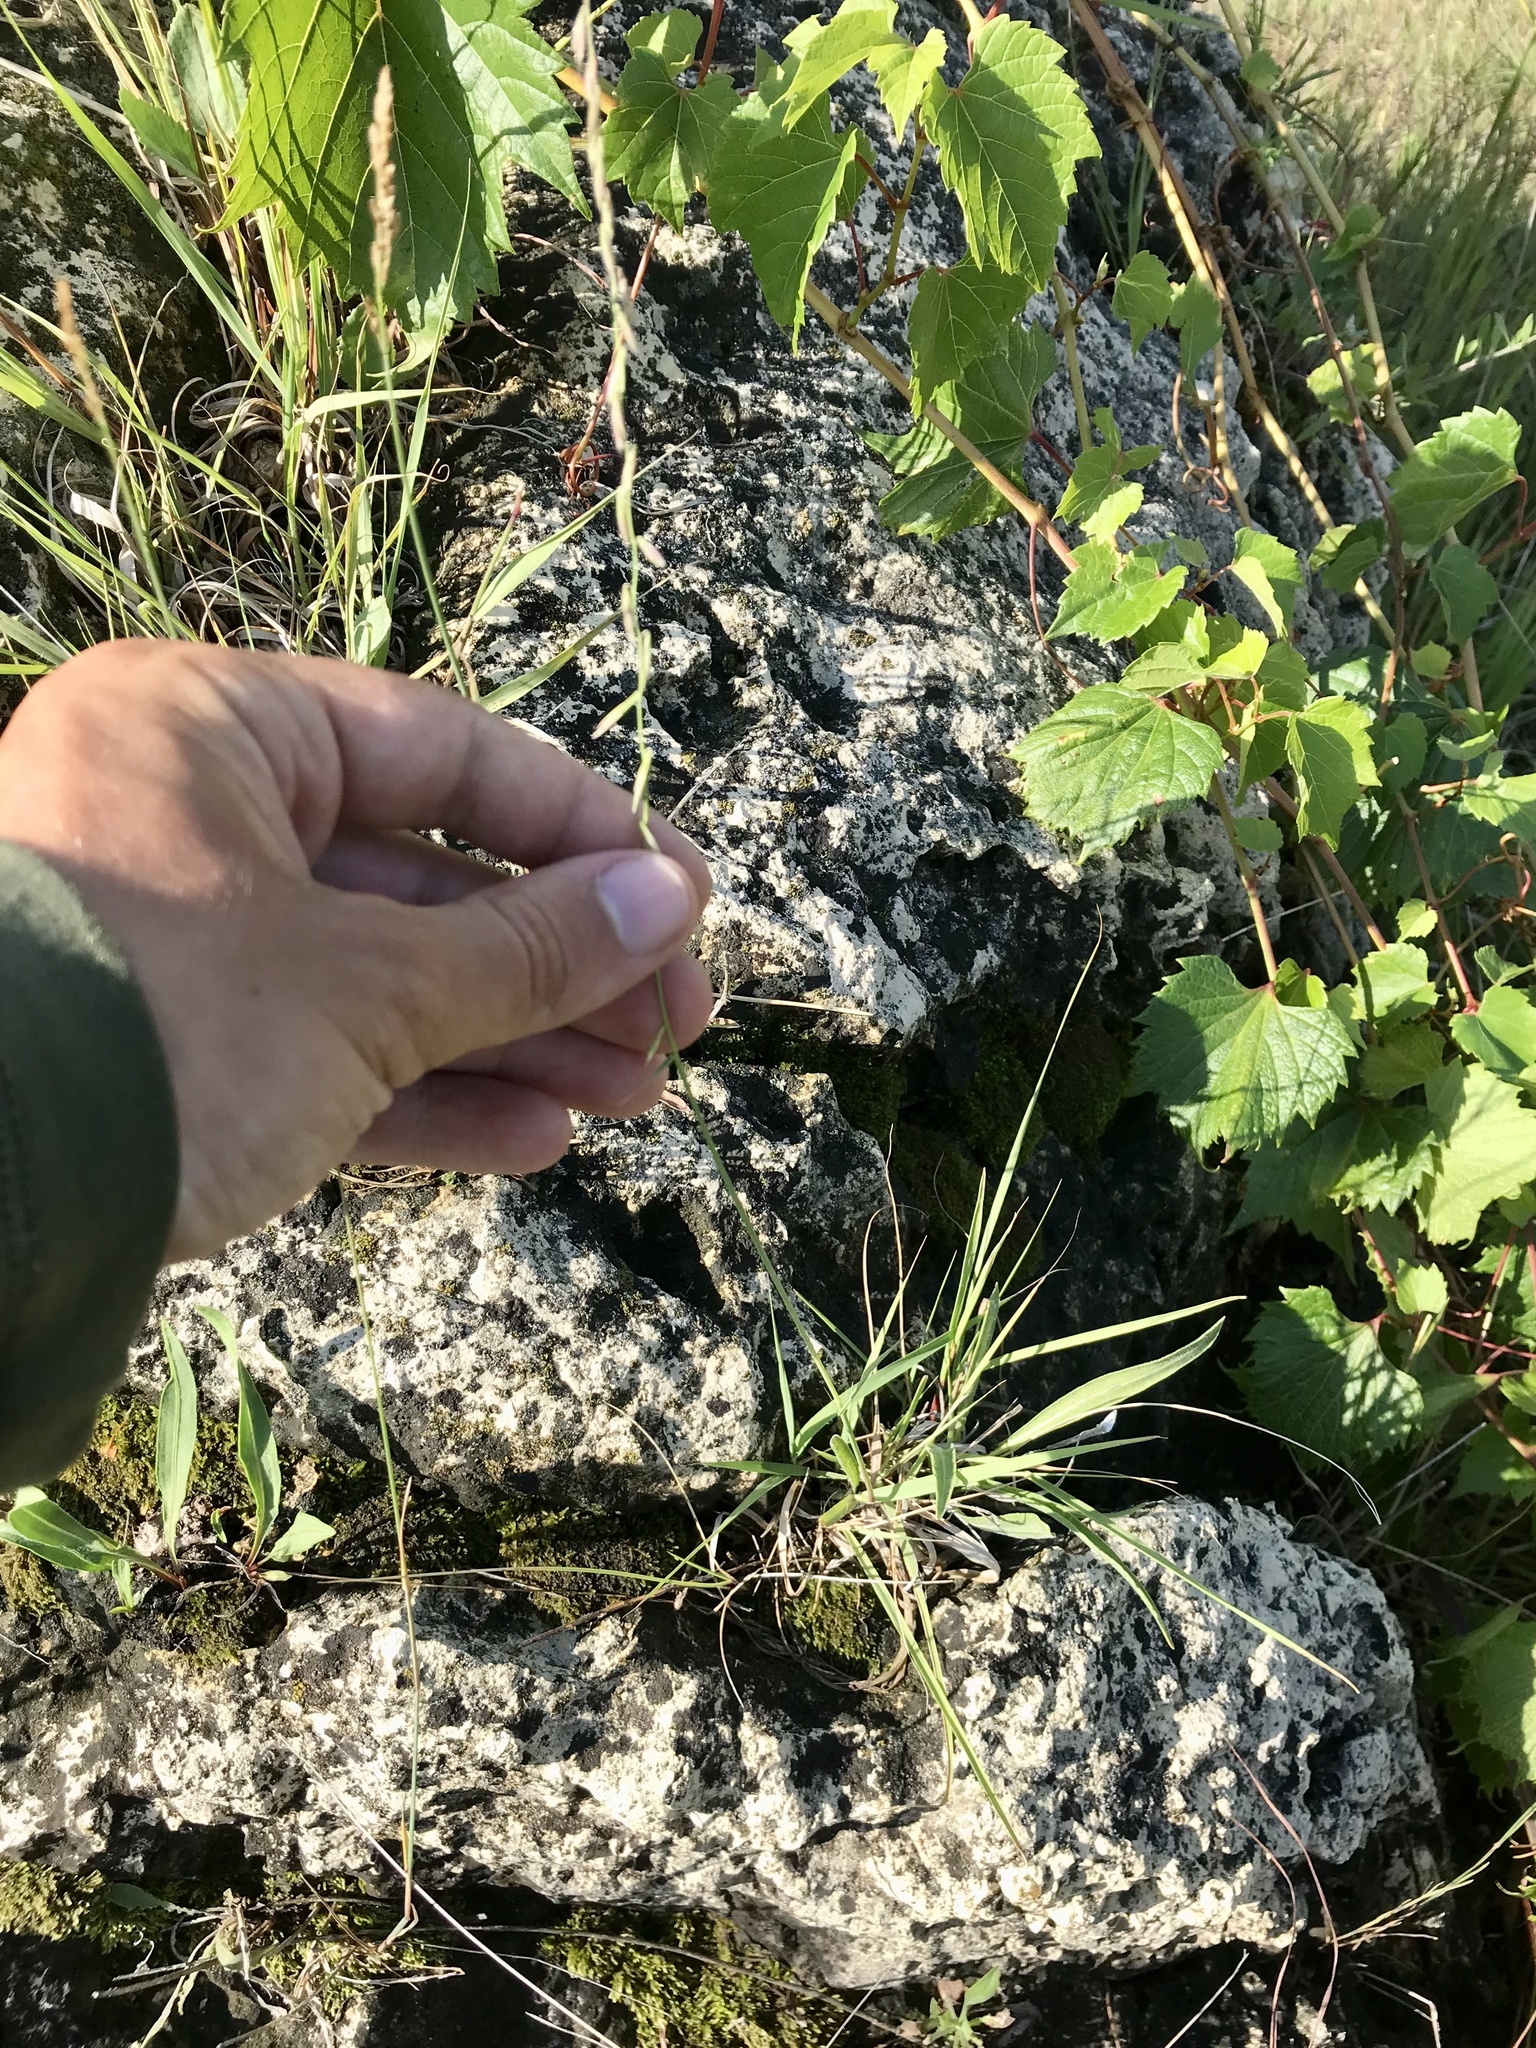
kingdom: Plantae
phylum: Tracheophyta
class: Liliopsida
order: Poales
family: Poaceae
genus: Bouteloua
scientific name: Bouteloua curtipendula
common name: Side-oats grama
